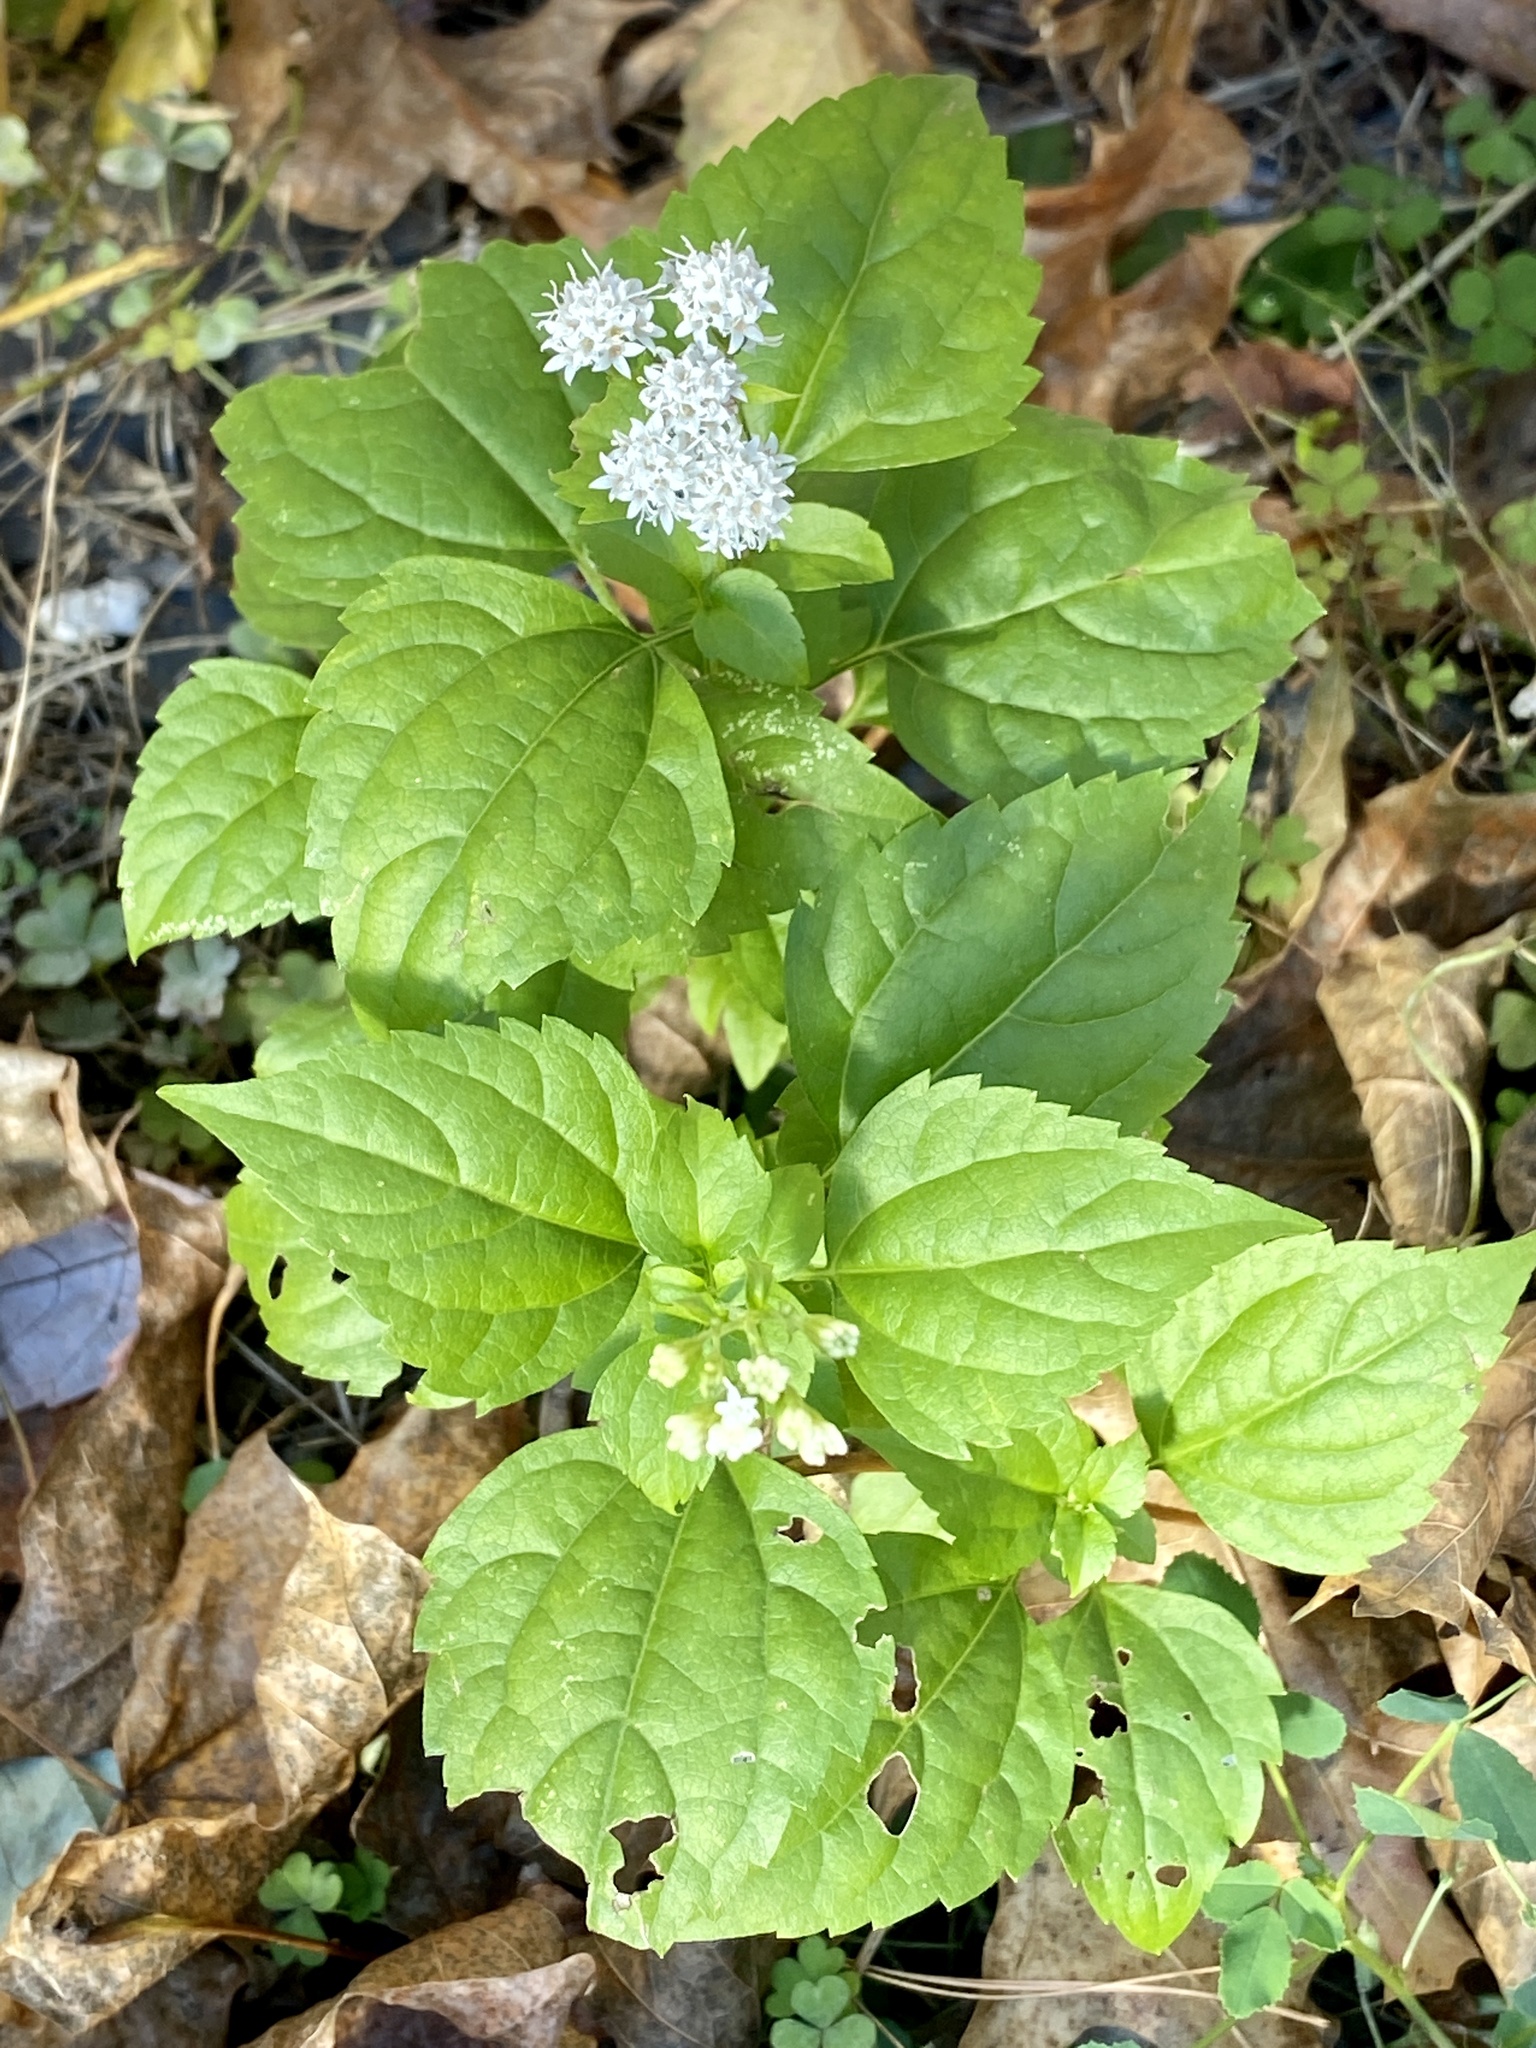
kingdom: Plantae
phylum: Tracheophyta
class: Magnoliopsida
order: Asterales
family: Asteraceae
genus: Ageratina
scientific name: Ageratina altissima
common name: White snakeroot
